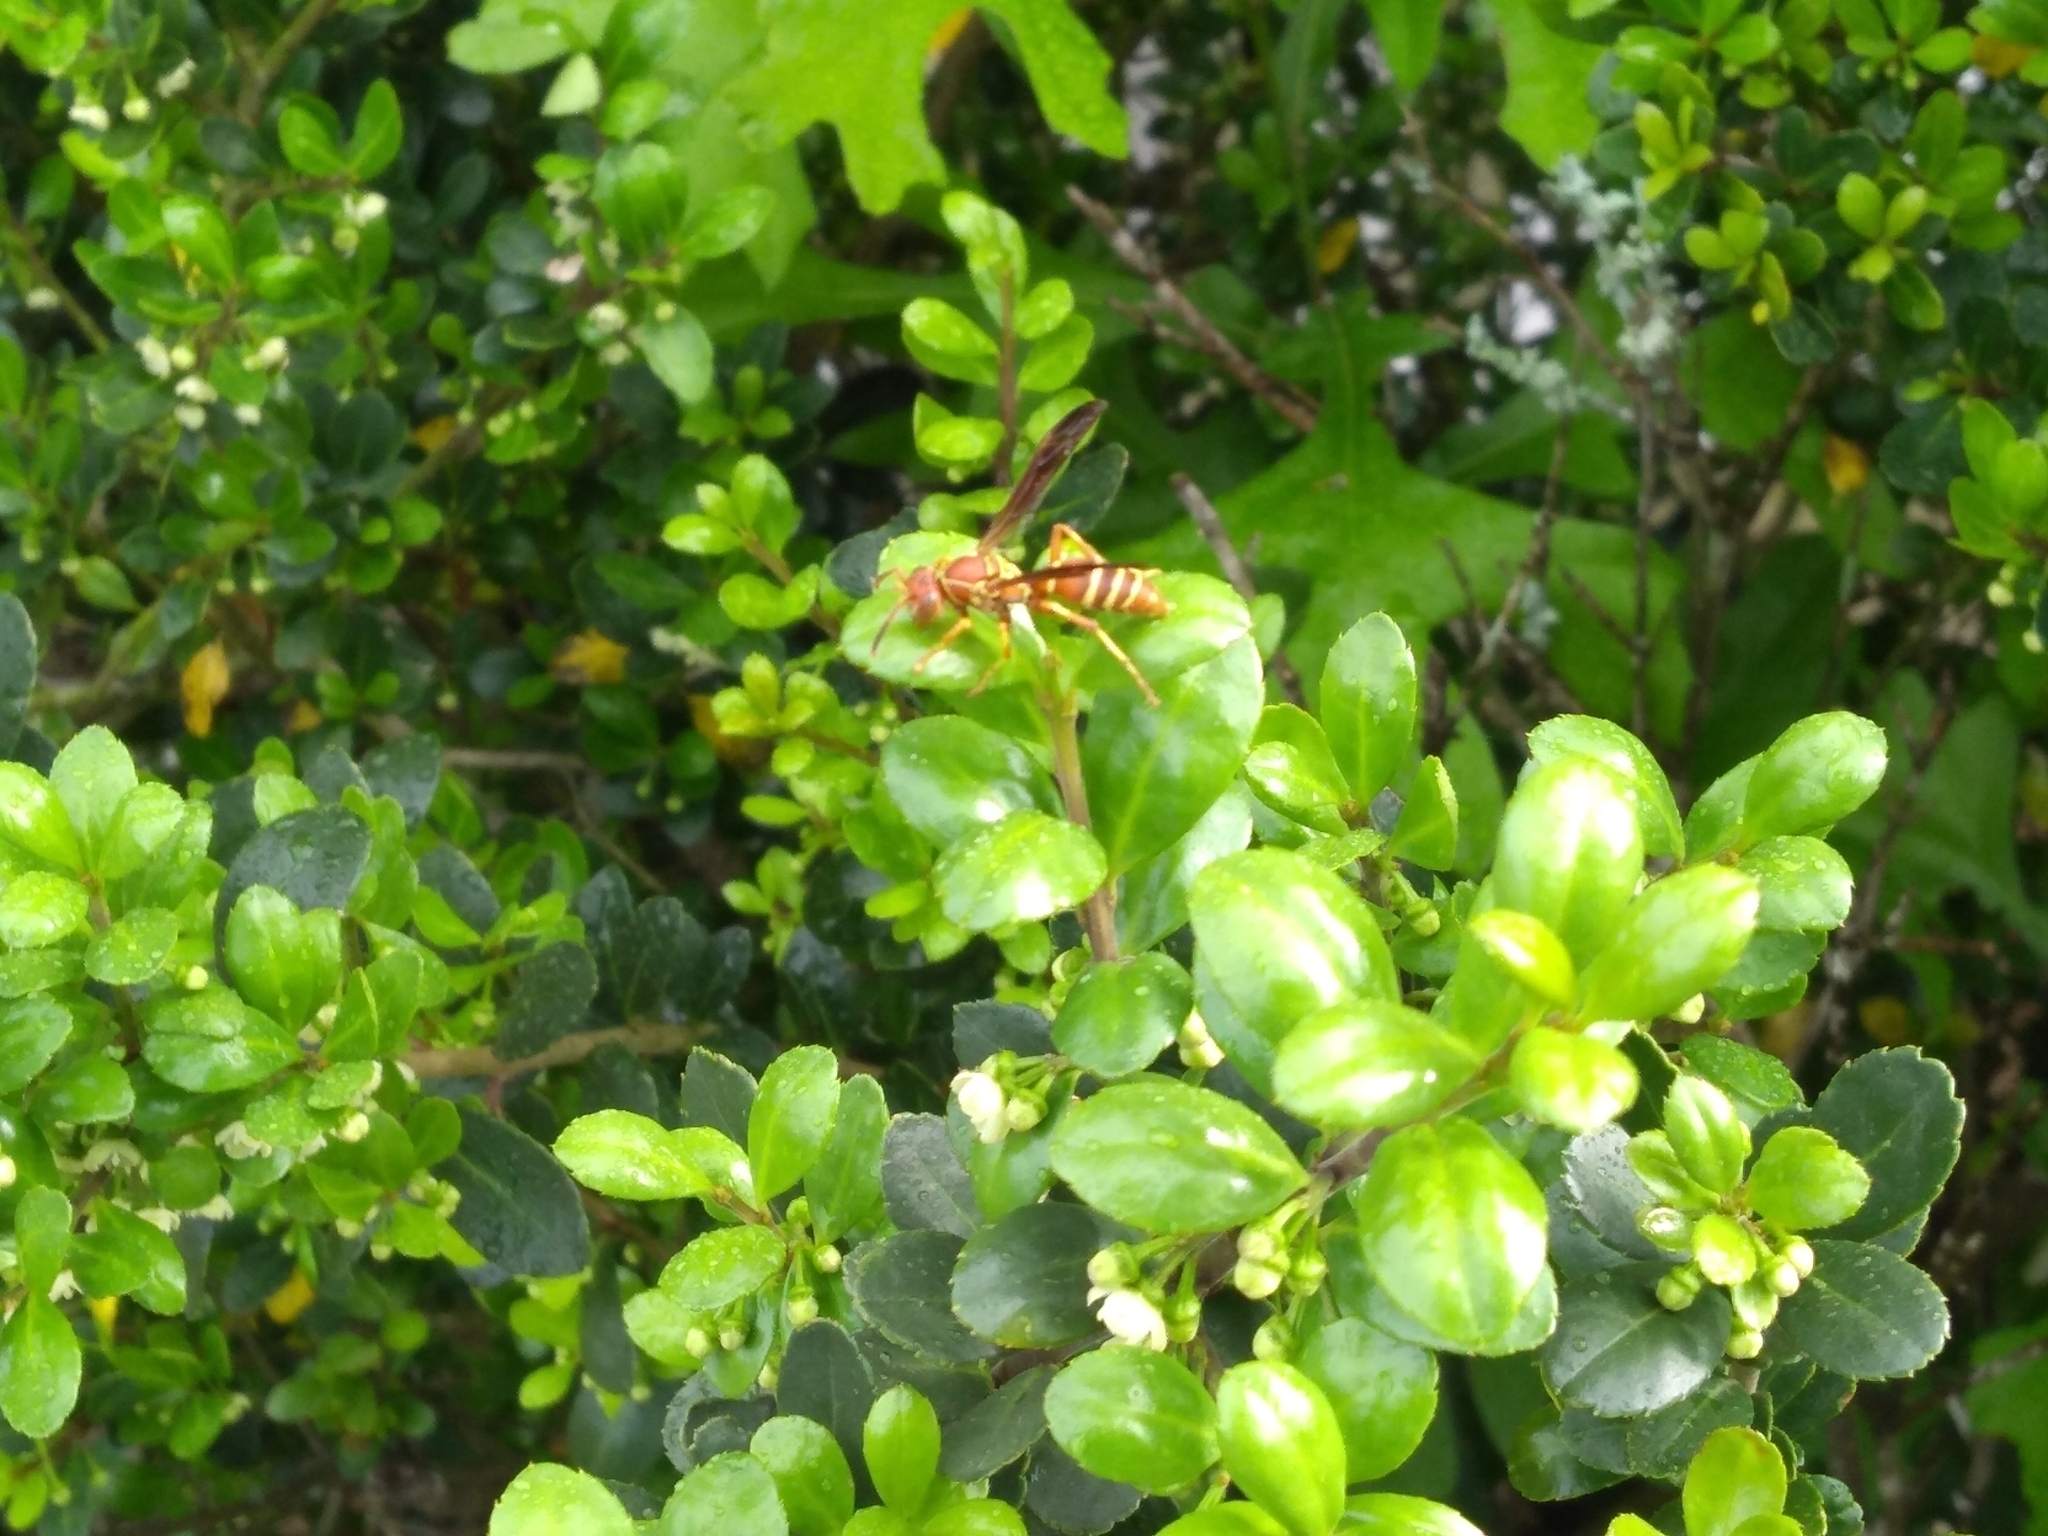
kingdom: Animalia
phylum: Arthropoda
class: Insecta
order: Hymenoptera
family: Eumenidae
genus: Polistes
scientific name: Polistes dorsalis
